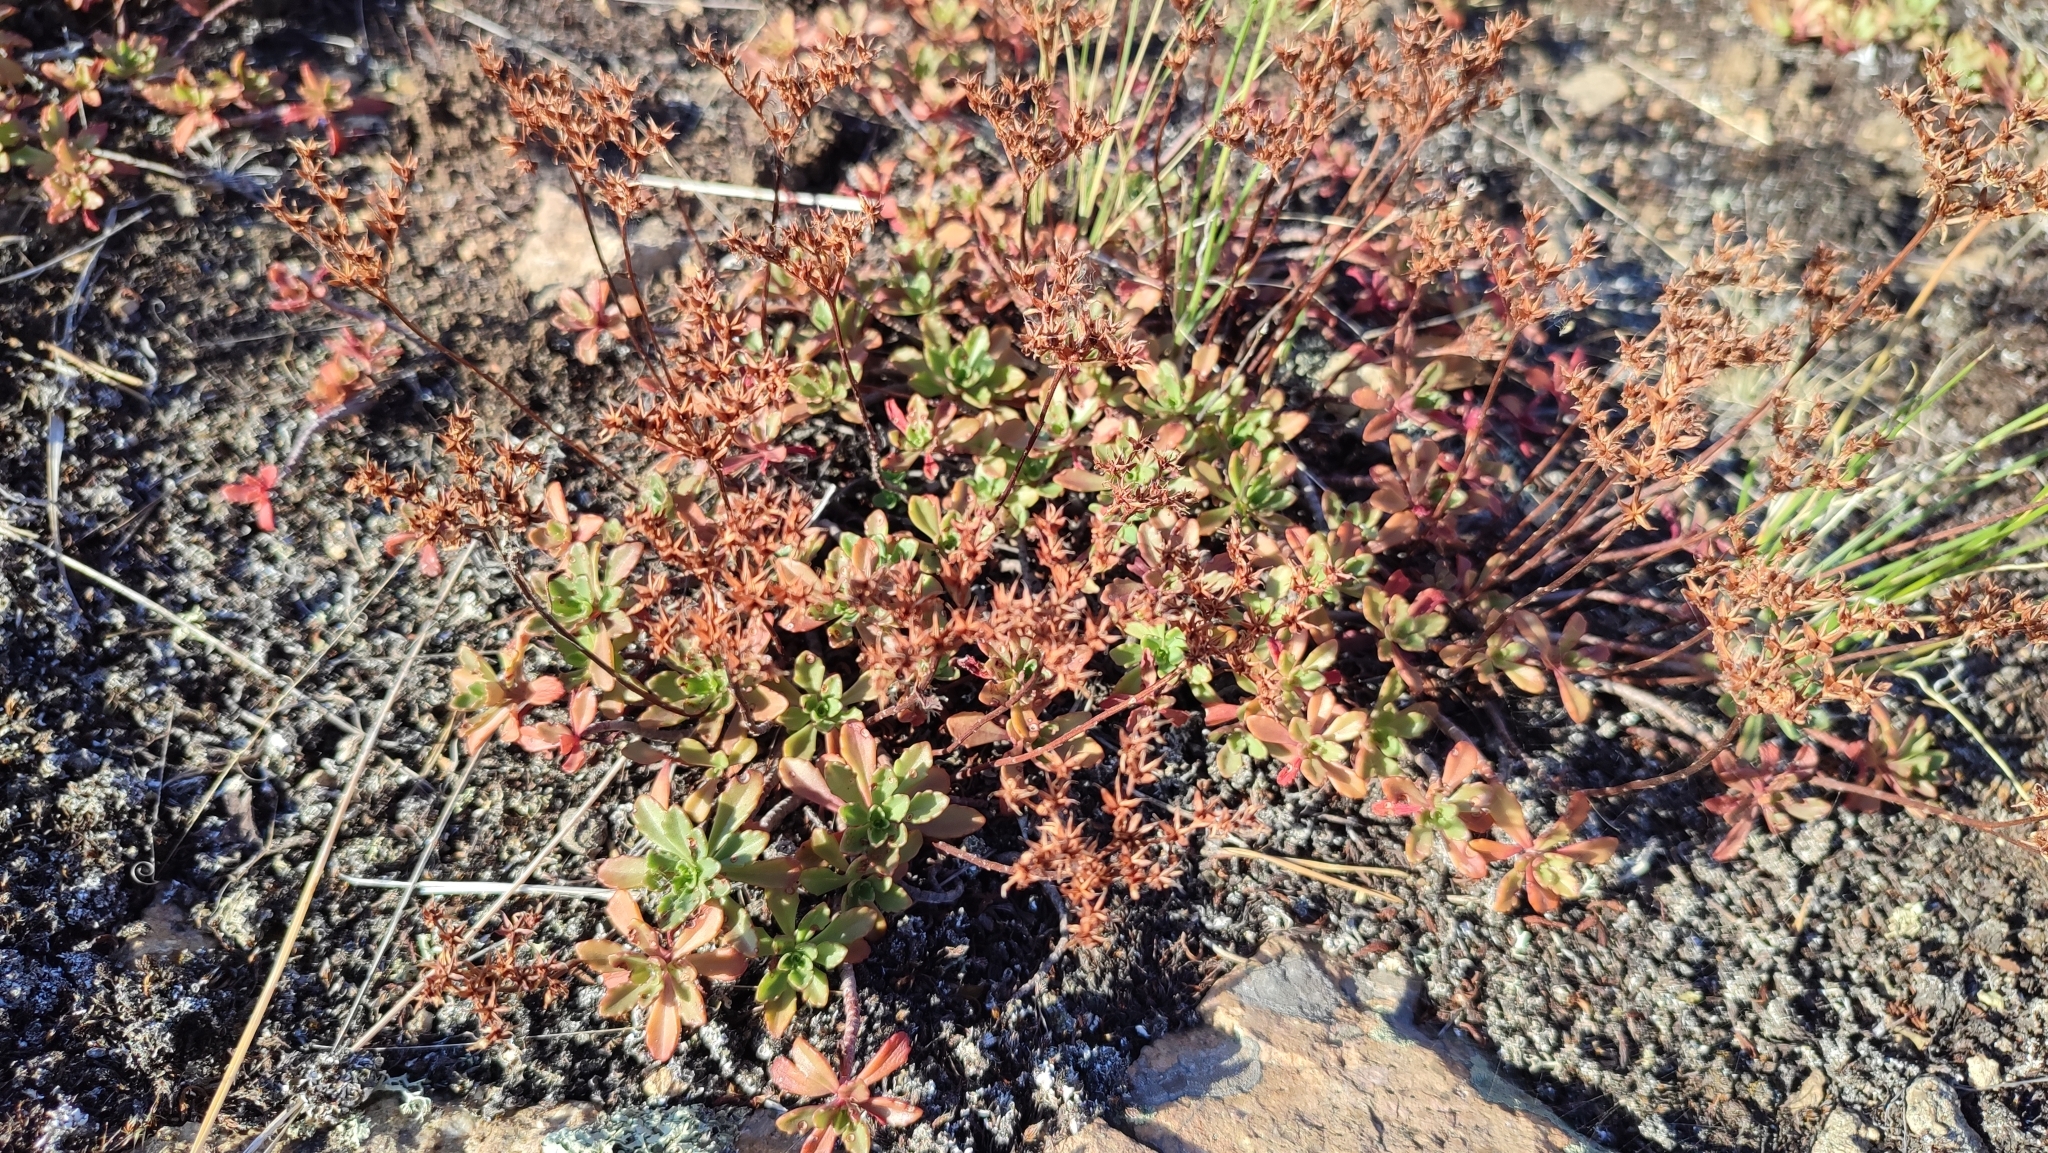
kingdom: Plantae
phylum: Tracheophyta
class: Magnoliopsida
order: Saxifragales
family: Crassulaceae
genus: Phedimus
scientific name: Phedimus hybridus
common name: Hybrid stonecrop
